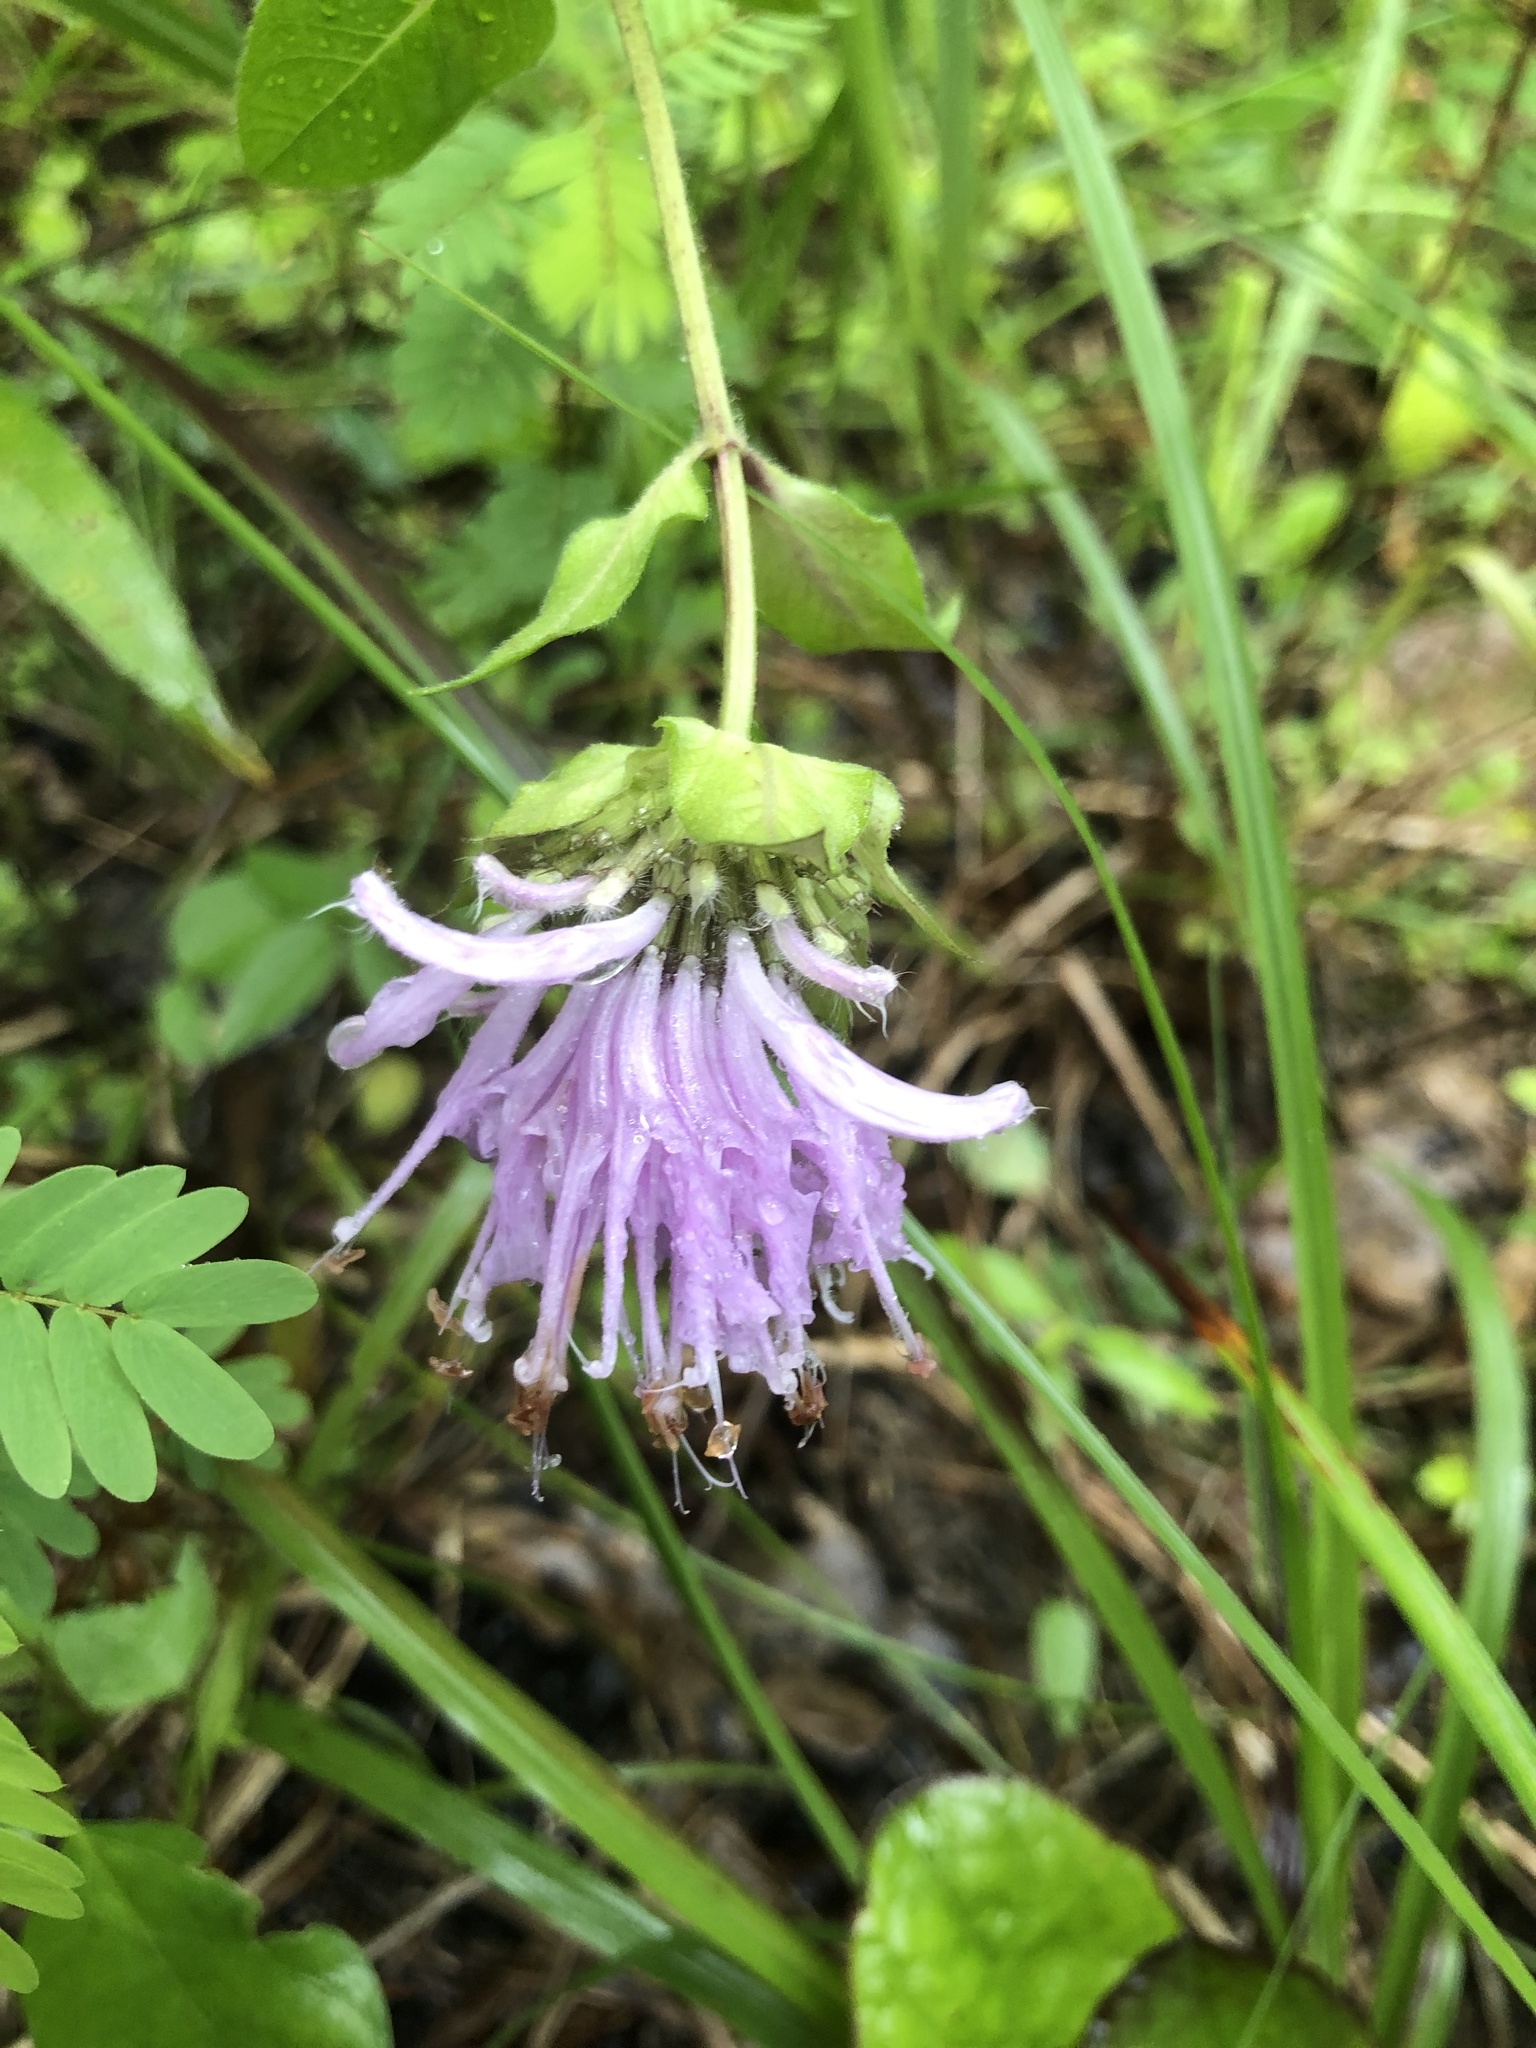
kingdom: Plantae
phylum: Tracheophyta
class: Magnoliopsida
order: Lamiales
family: Lamiaceae
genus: Monarda
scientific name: Monarda fistulosa
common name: Purple beebalm
